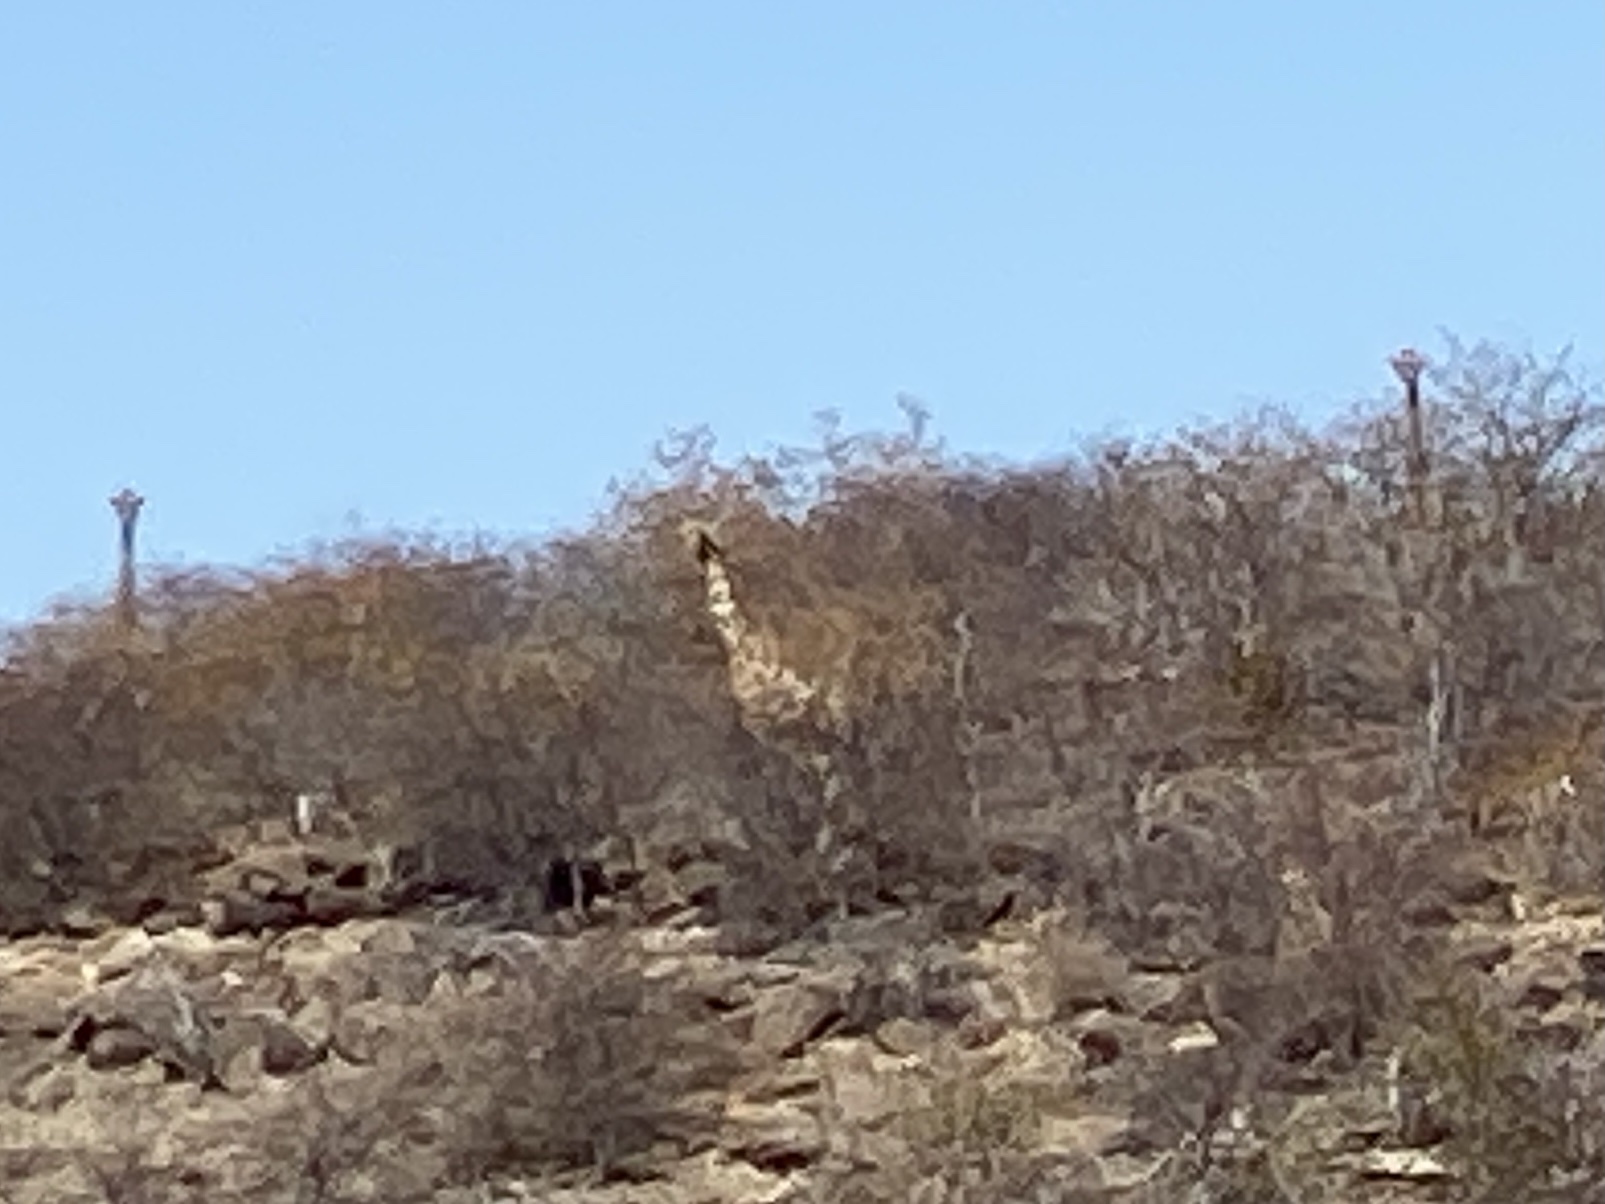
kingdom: Animalia
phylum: Chordata
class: Mammalia
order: Artiodactyla
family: Giraffidae
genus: Giraffa
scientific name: Giraffa giraffa
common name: Southern giraffe
